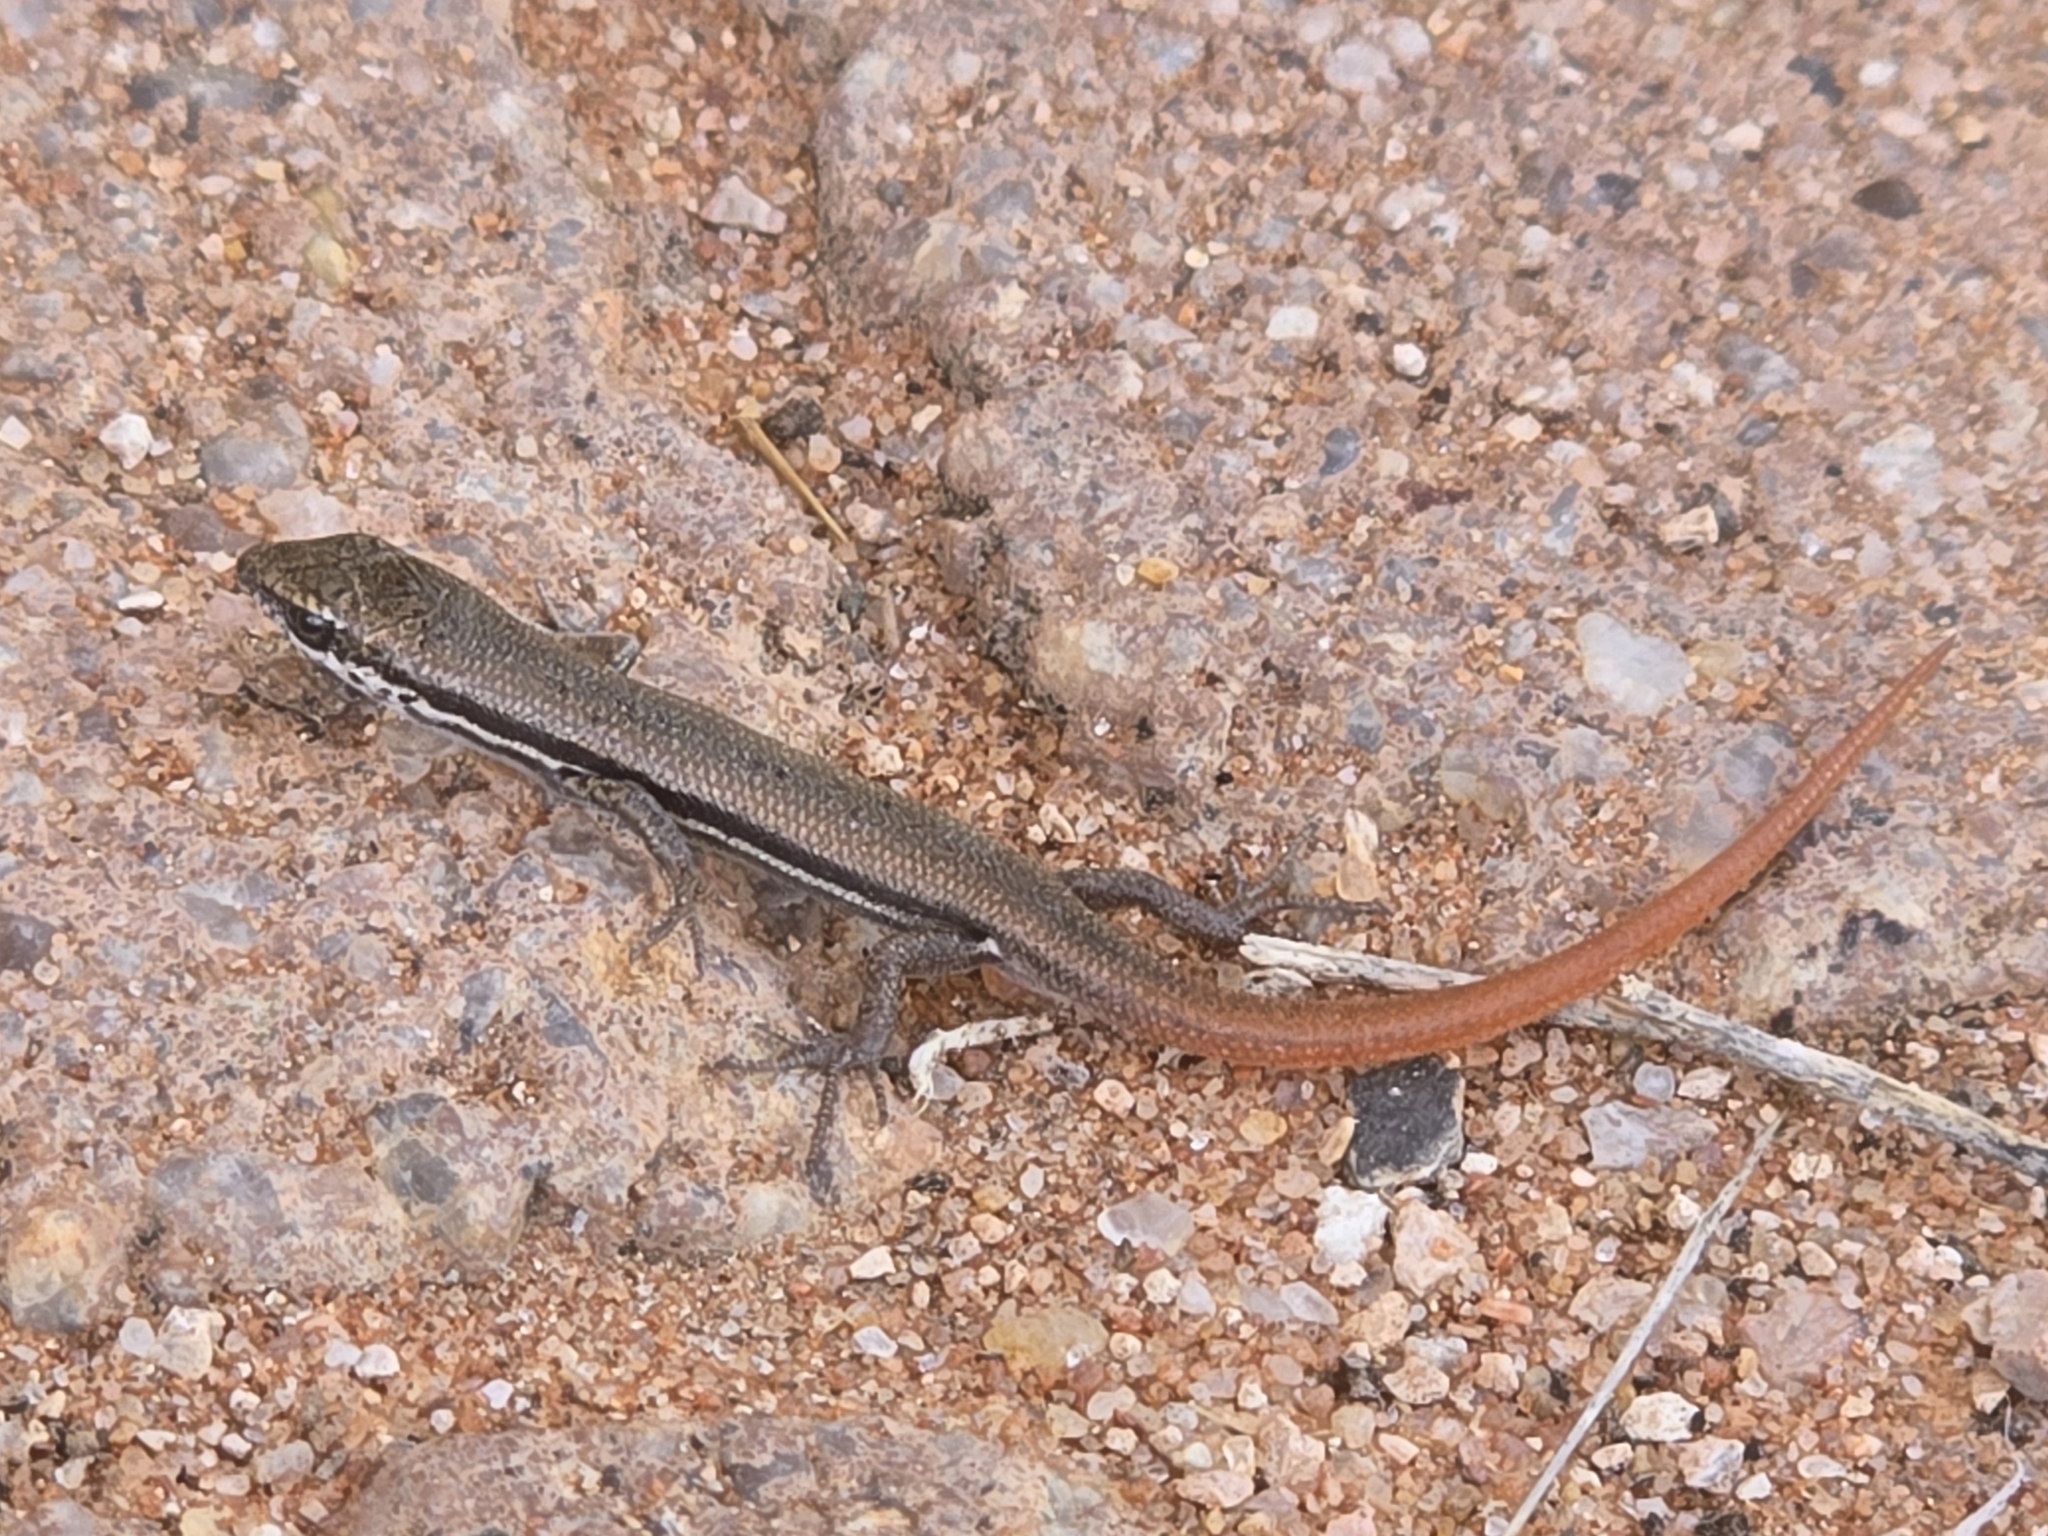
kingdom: Animalia
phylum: Chordata
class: Squamata
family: Scincidae
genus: Morethia
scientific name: Morethia boulengeri
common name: South-eastern morethia skink
